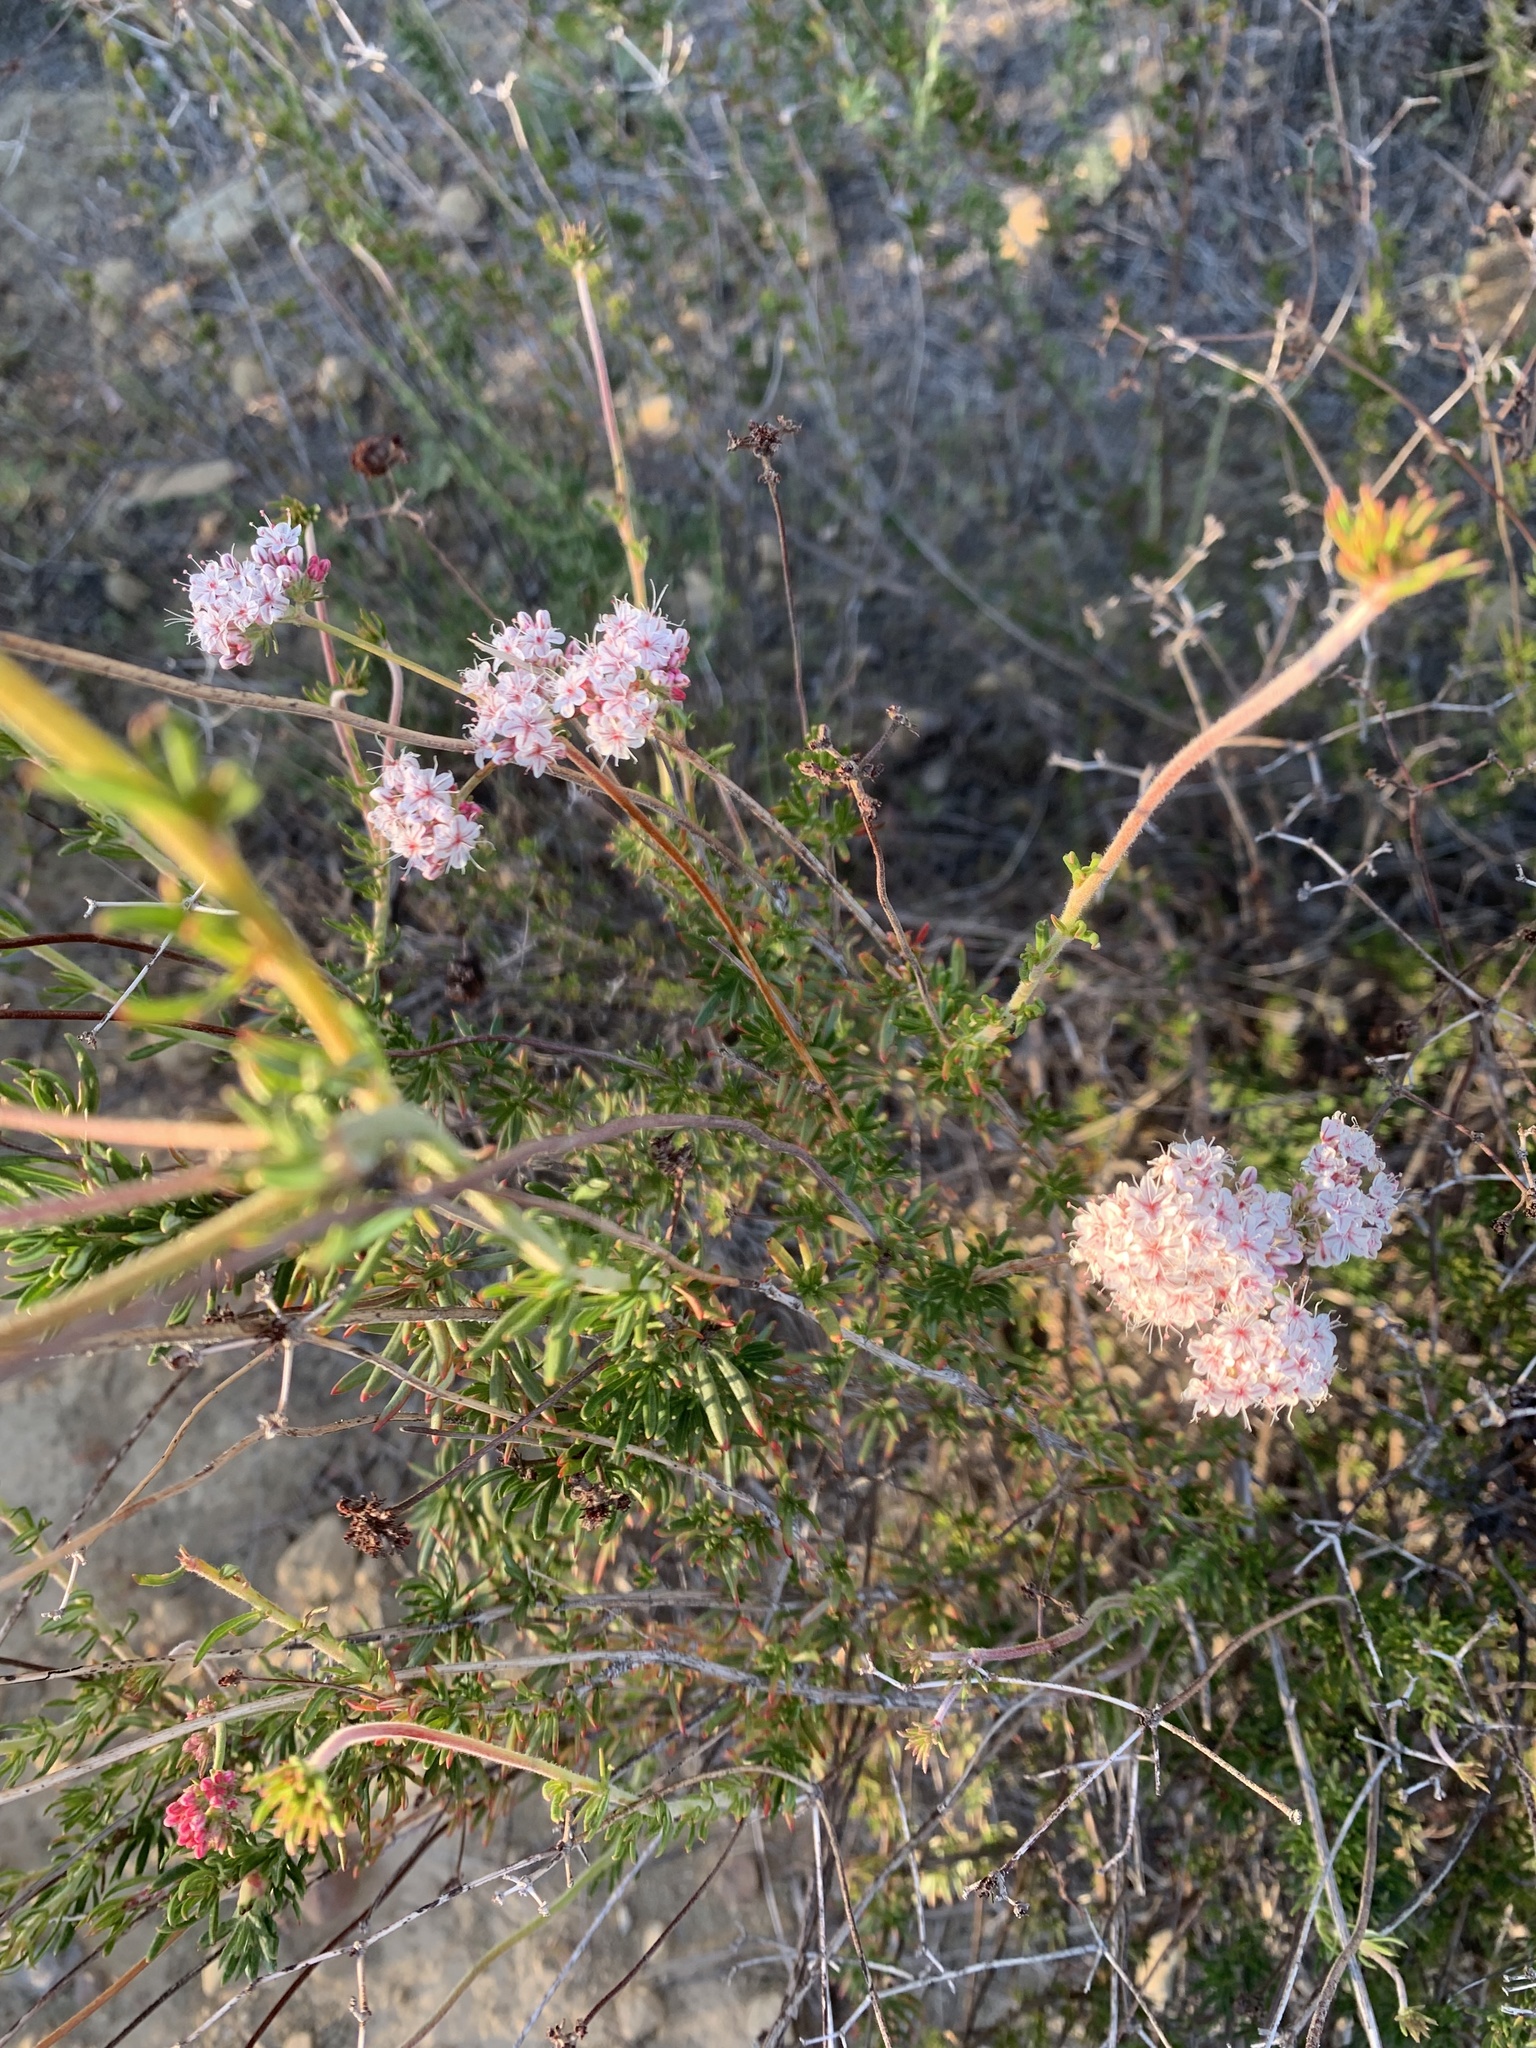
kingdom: Plantae
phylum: Tracheophyta
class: Magnoliopsida
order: Caryophyllales
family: Polygonaceae
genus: Eriogonum
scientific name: Eriogonum fasciculatum
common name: California wild buckwheat
